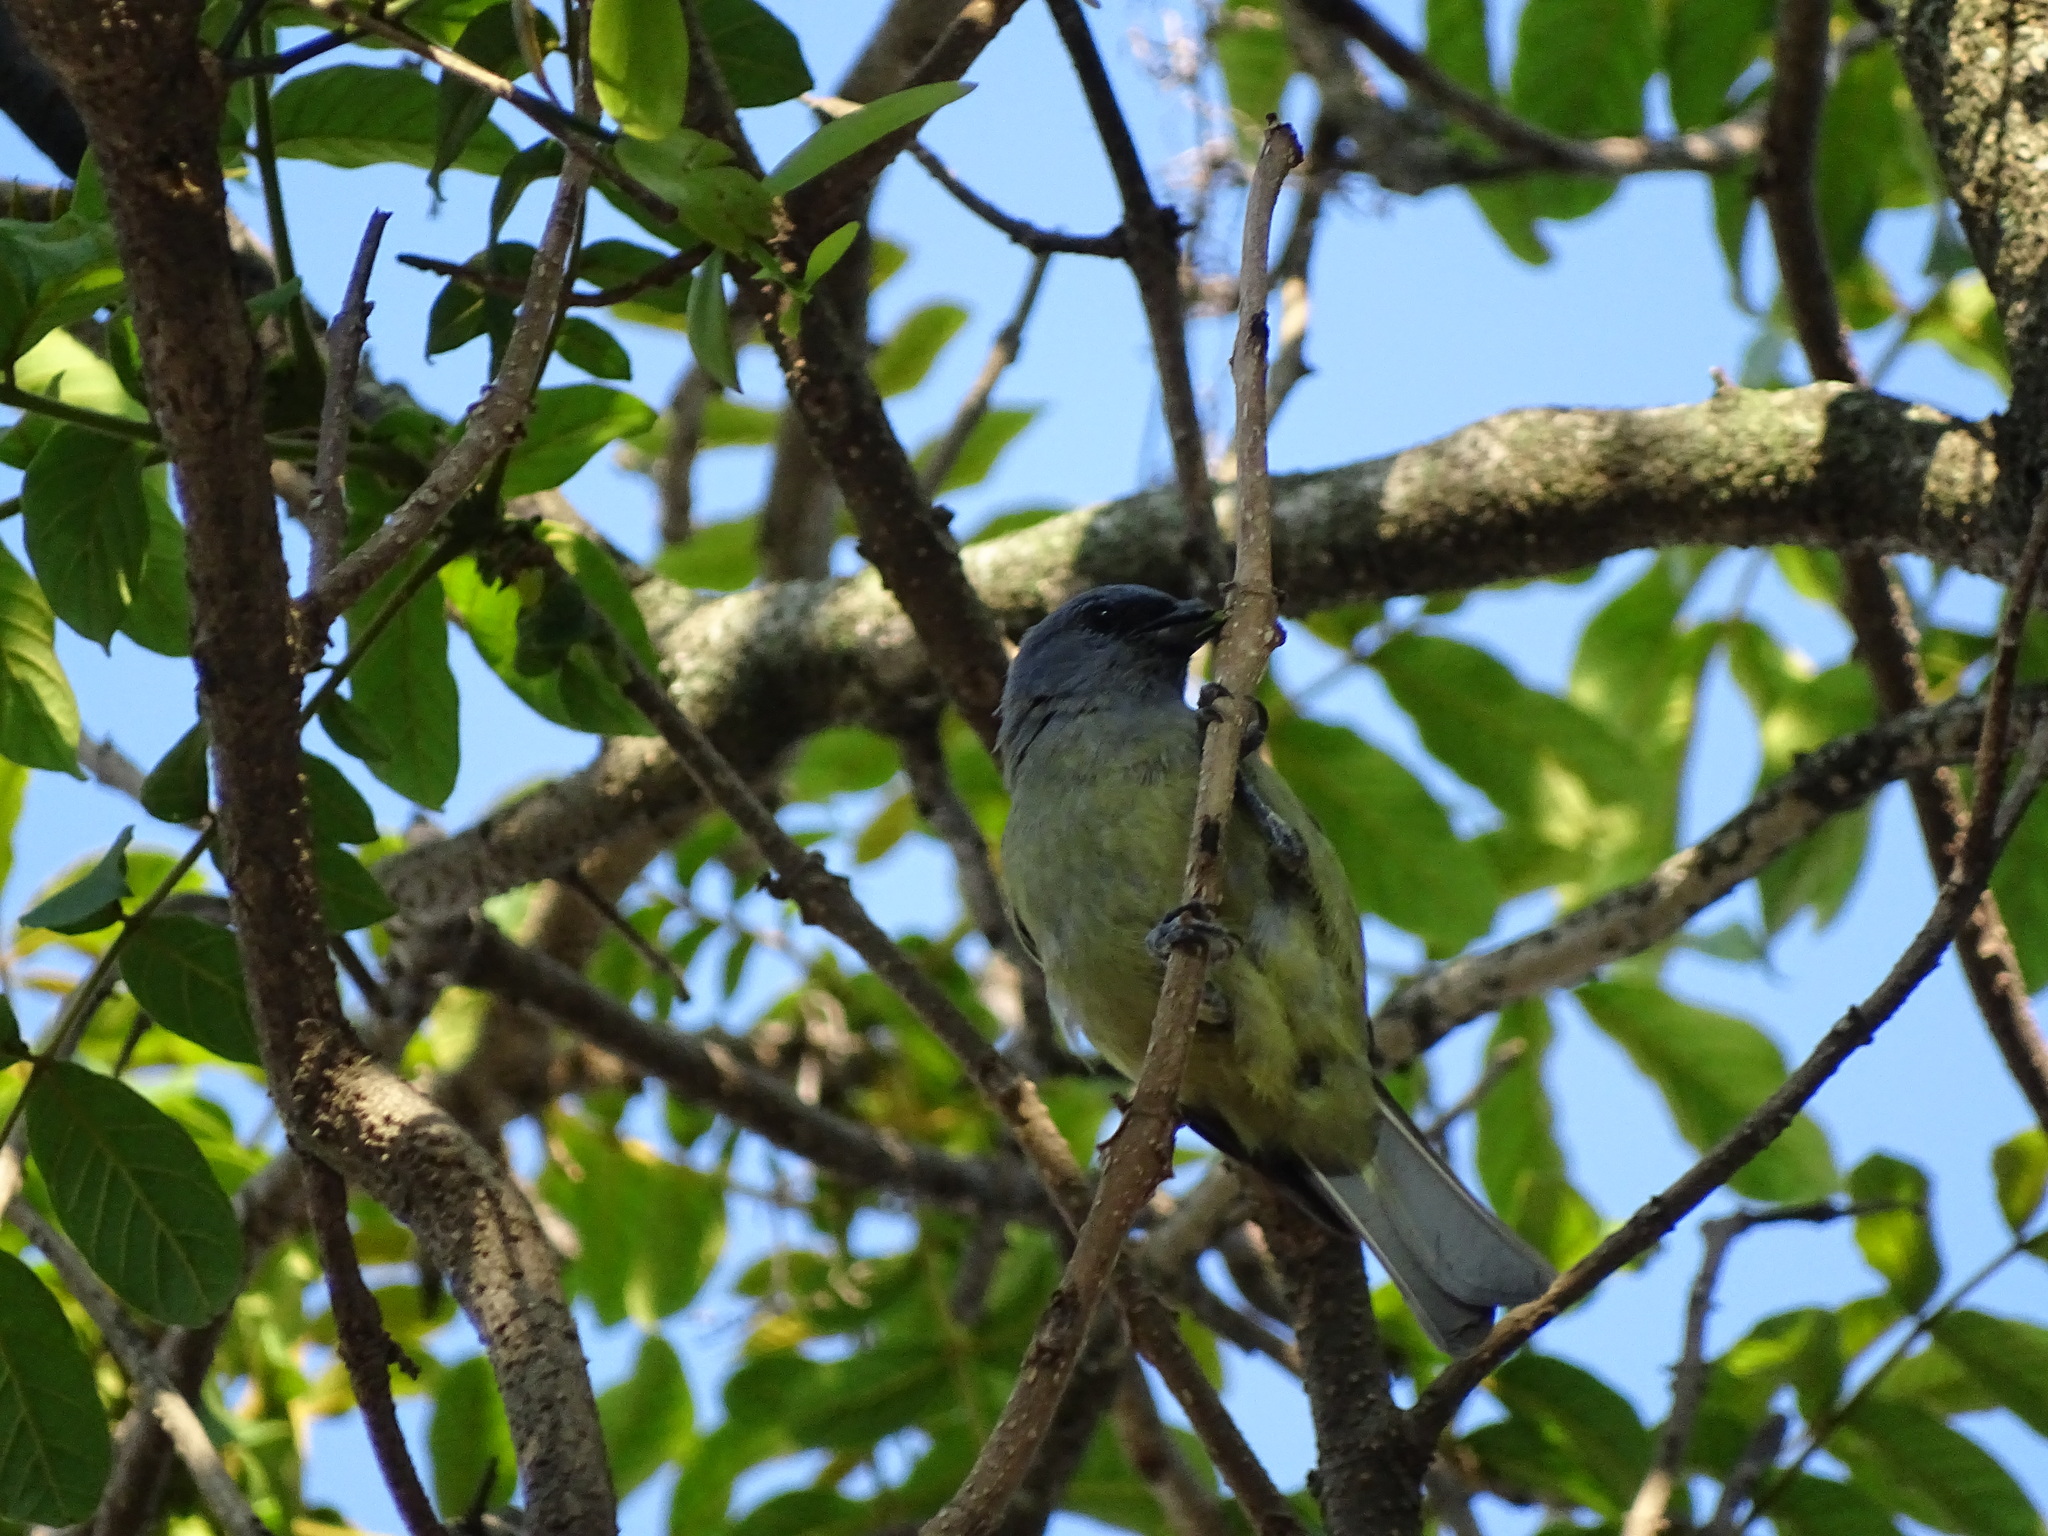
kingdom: Animalia
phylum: Chordata
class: Aves
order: Passeriformes
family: Thraupidae
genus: Thraupis
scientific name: Thraupis abbas
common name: Yellow-winged tanager
